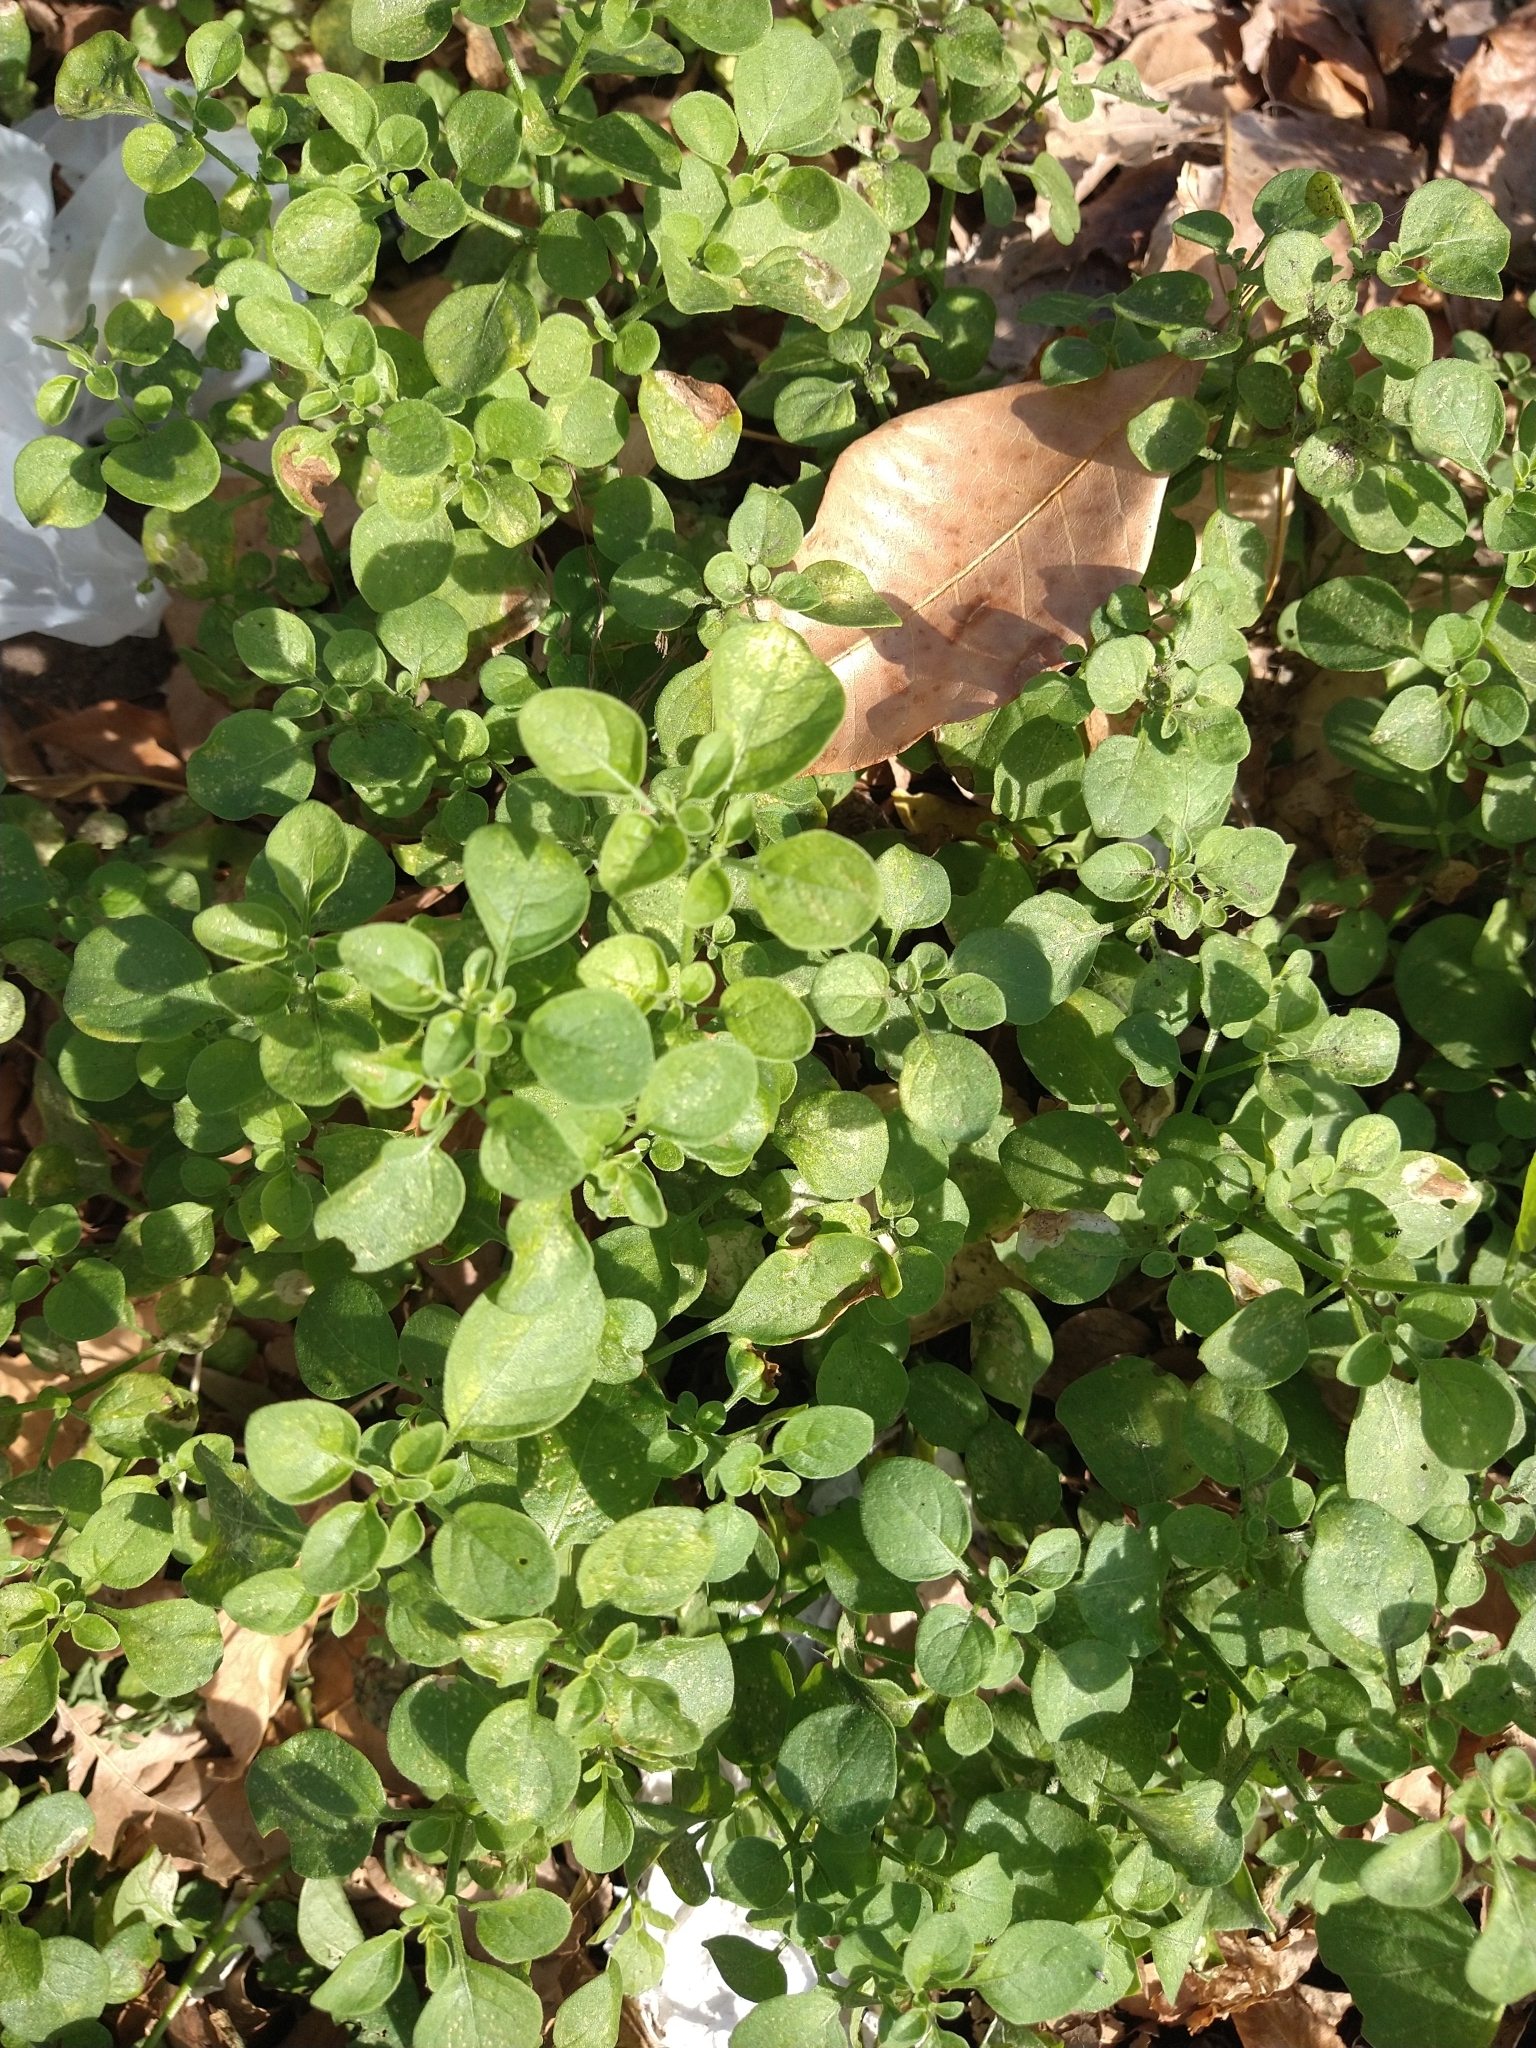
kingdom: Plantae
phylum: Tracheophyta
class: Magnoliopsida
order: Solanales
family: Solanaceae
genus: Salpichroa
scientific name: Salpichroa origanifolia
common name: Lily-of-the-valley-vine
